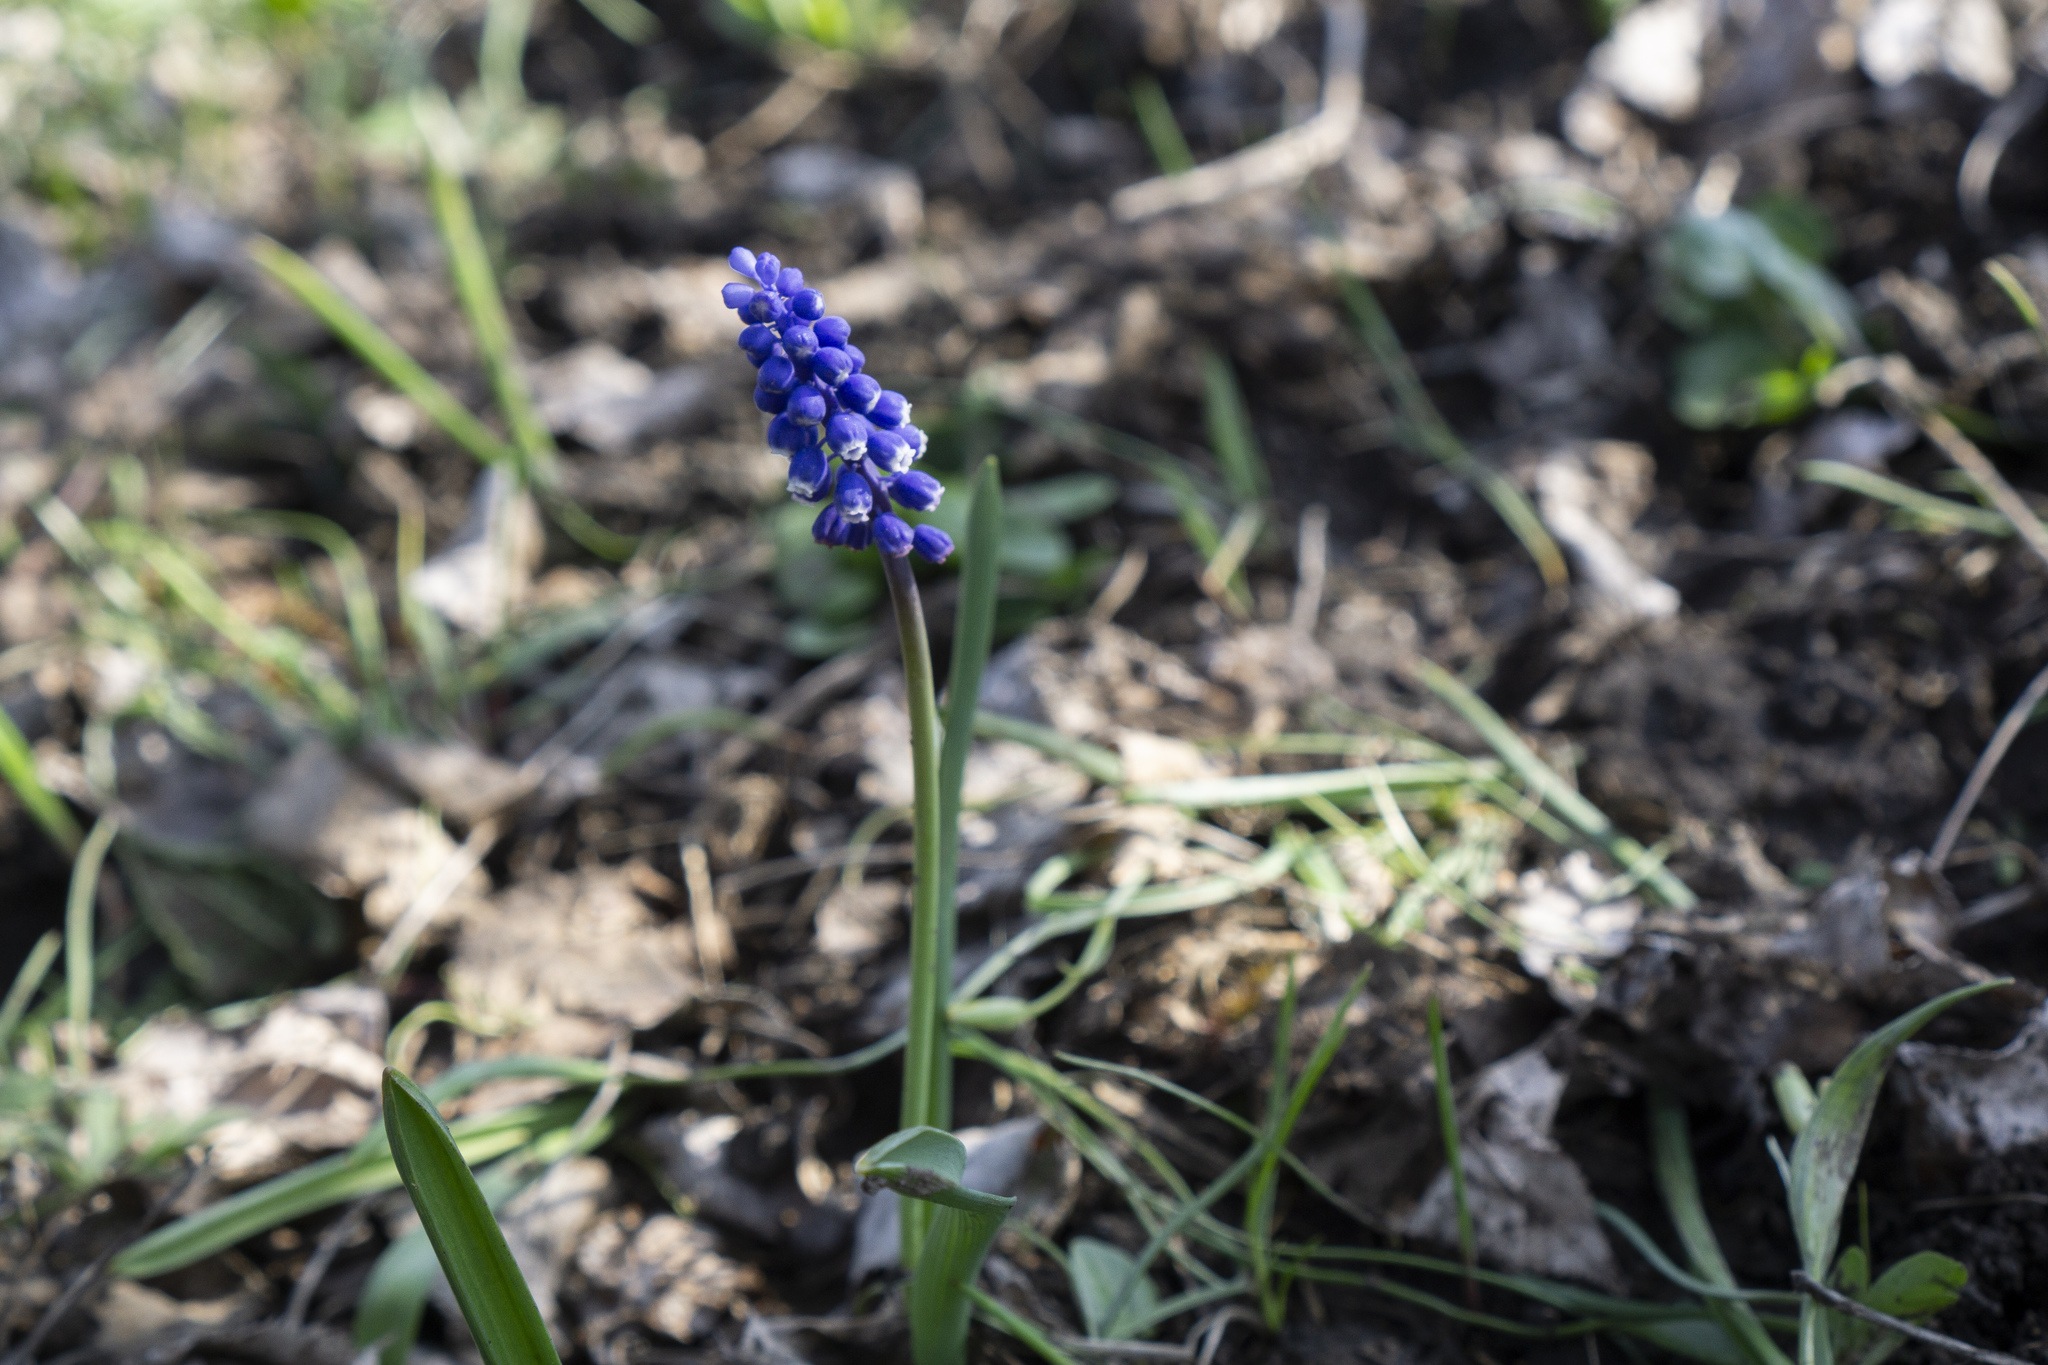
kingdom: Plantae
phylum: Tracheophyta
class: Liliopsida
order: Asparagales
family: Asparagaceae
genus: Muscari
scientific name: Muscari botryoides
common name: Compact grape-hyacinth
